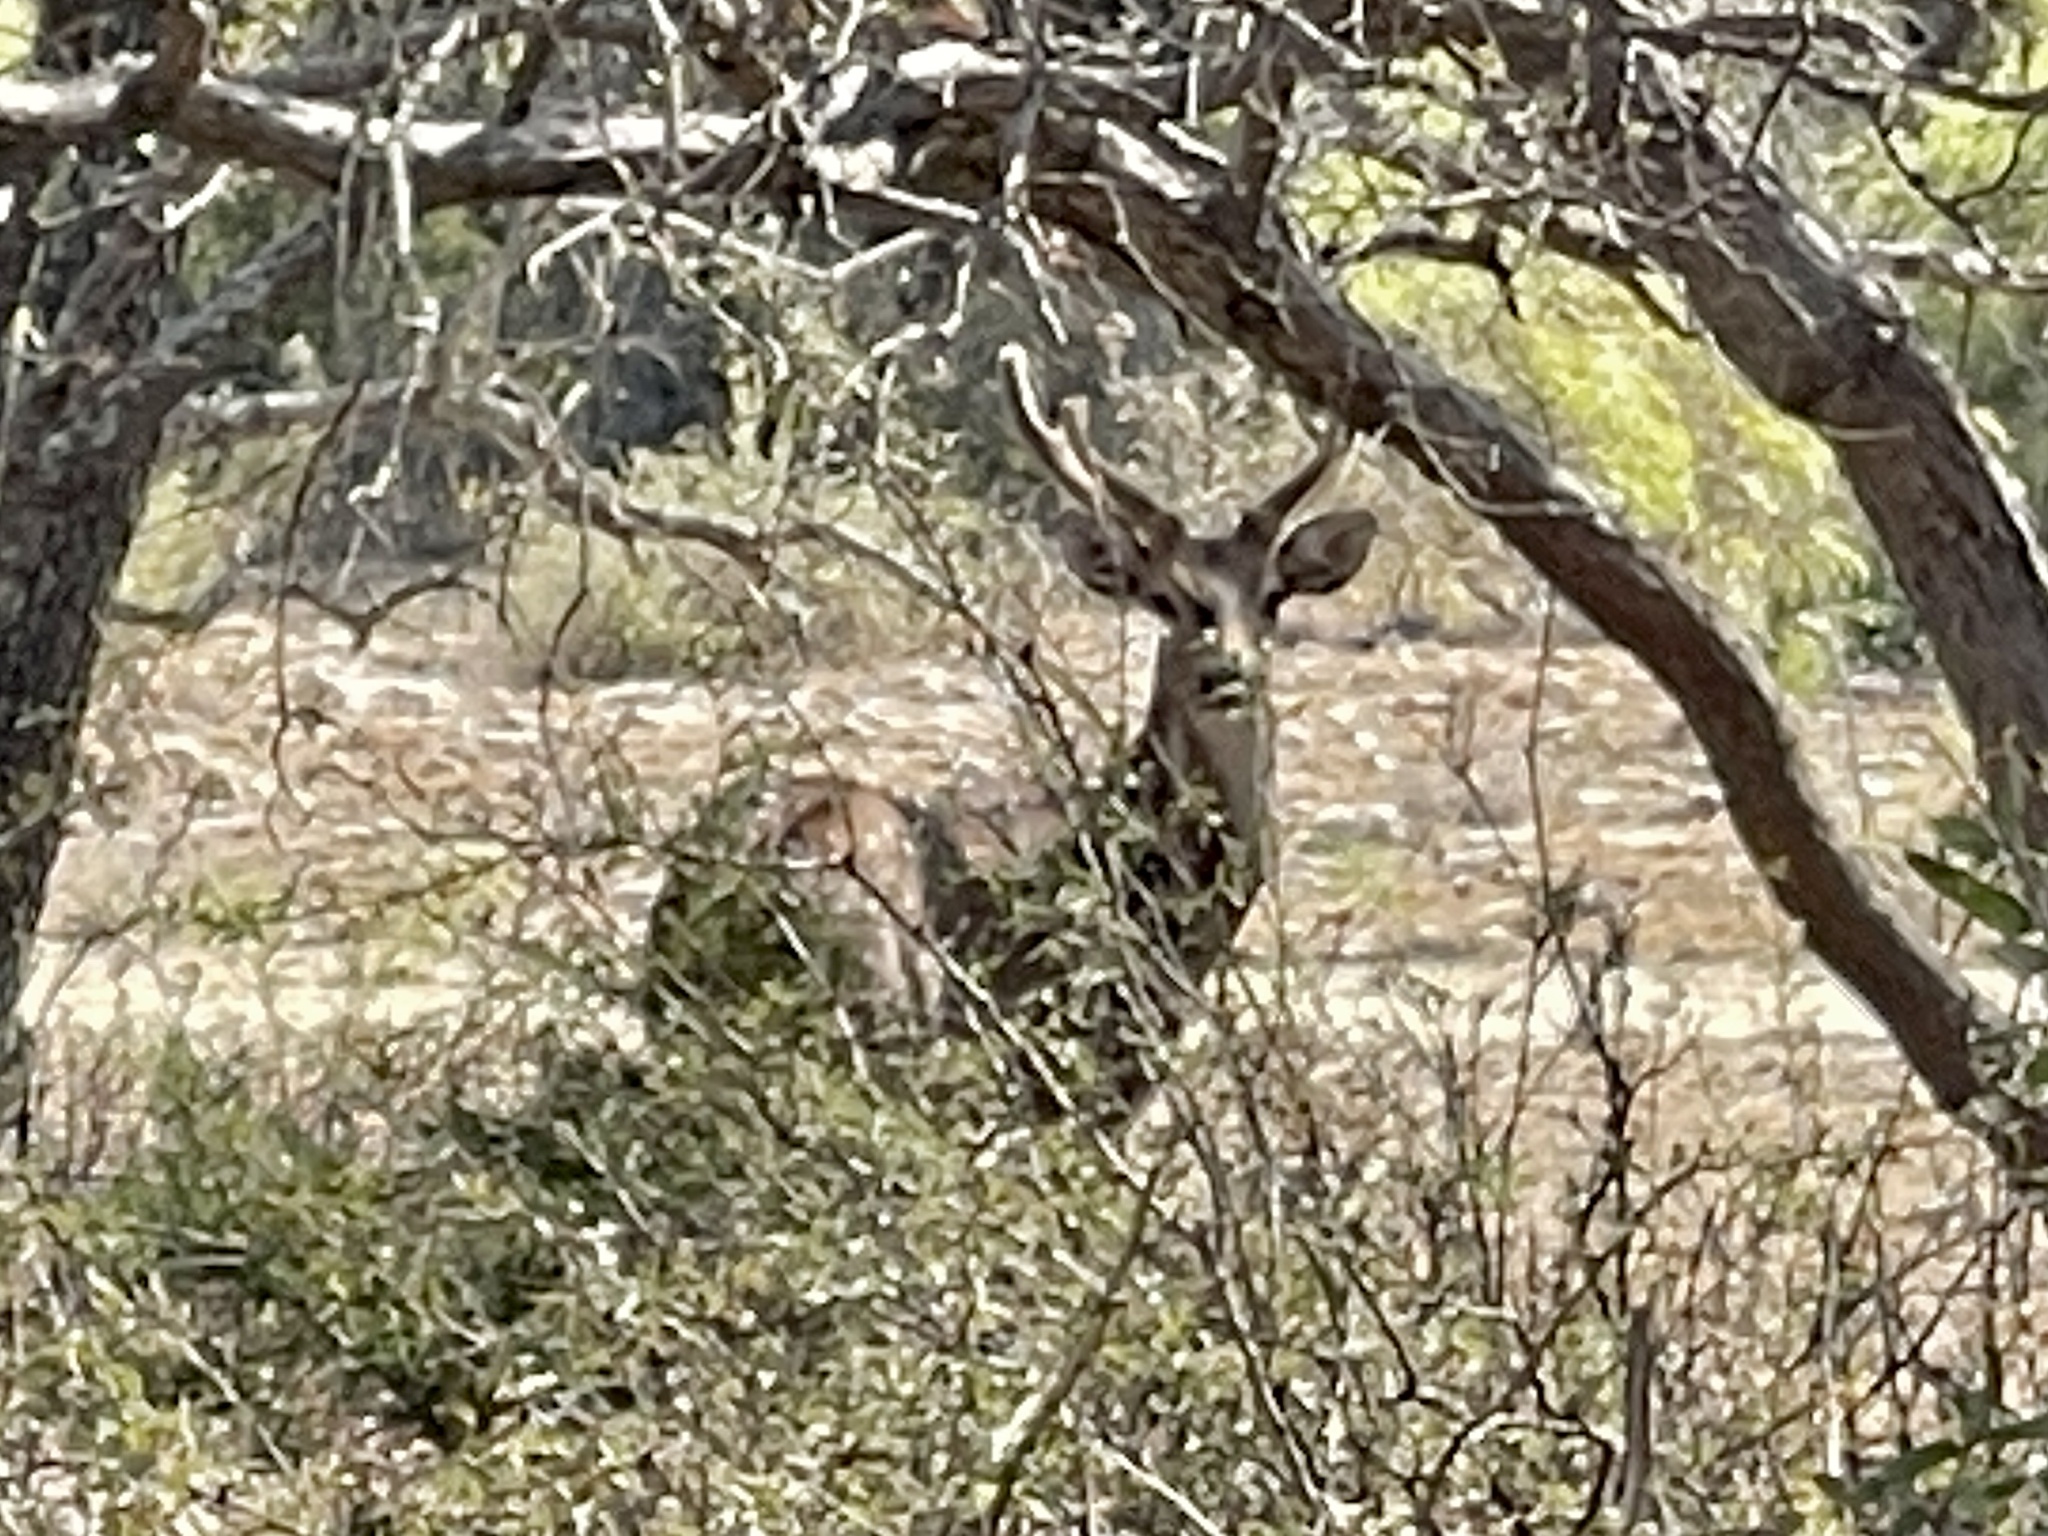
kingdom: Animalia
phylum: Chordata
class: Mammalia
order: Artiodactyla
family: Cervidae
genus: Axis
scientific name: Axis axis
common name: Chital
